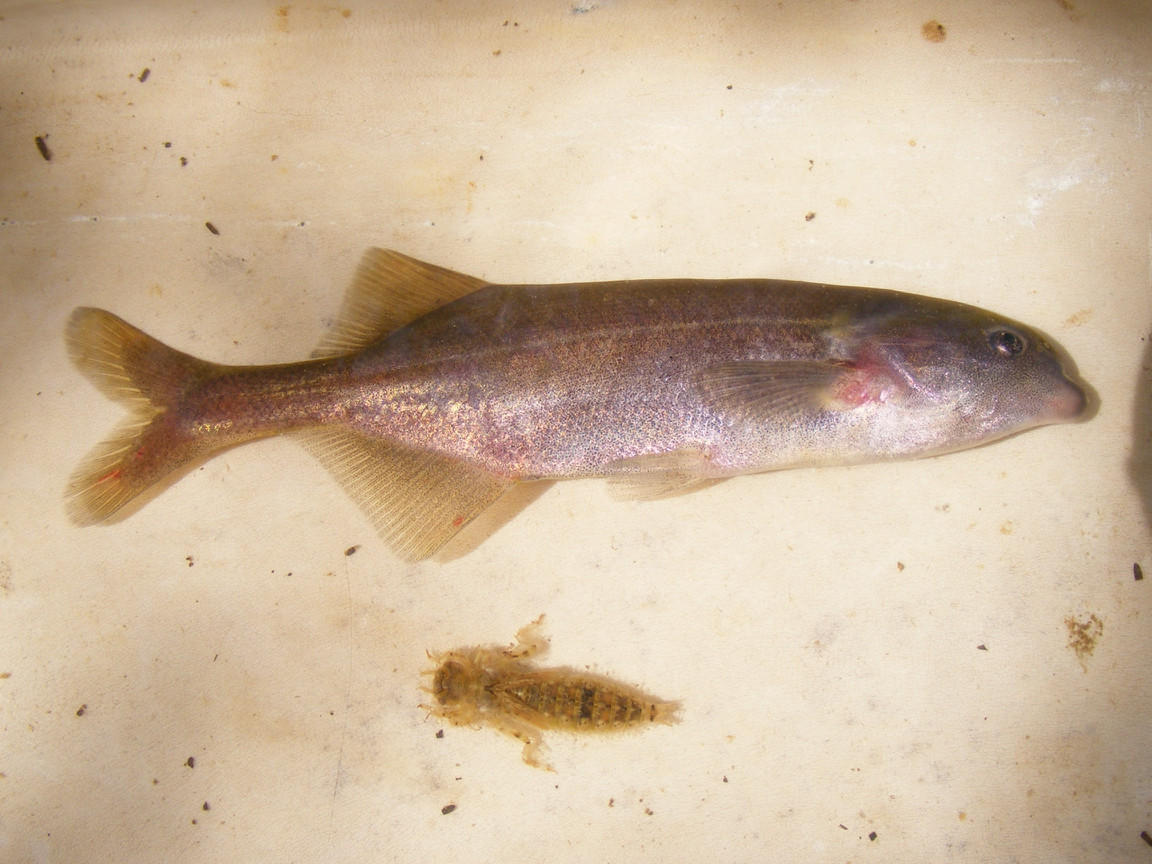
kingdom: Animalia
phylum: Chordata
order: Osteoglossiformes
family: Mormyridae
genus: Marcusenius
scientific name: Marcusenius pongolensis
